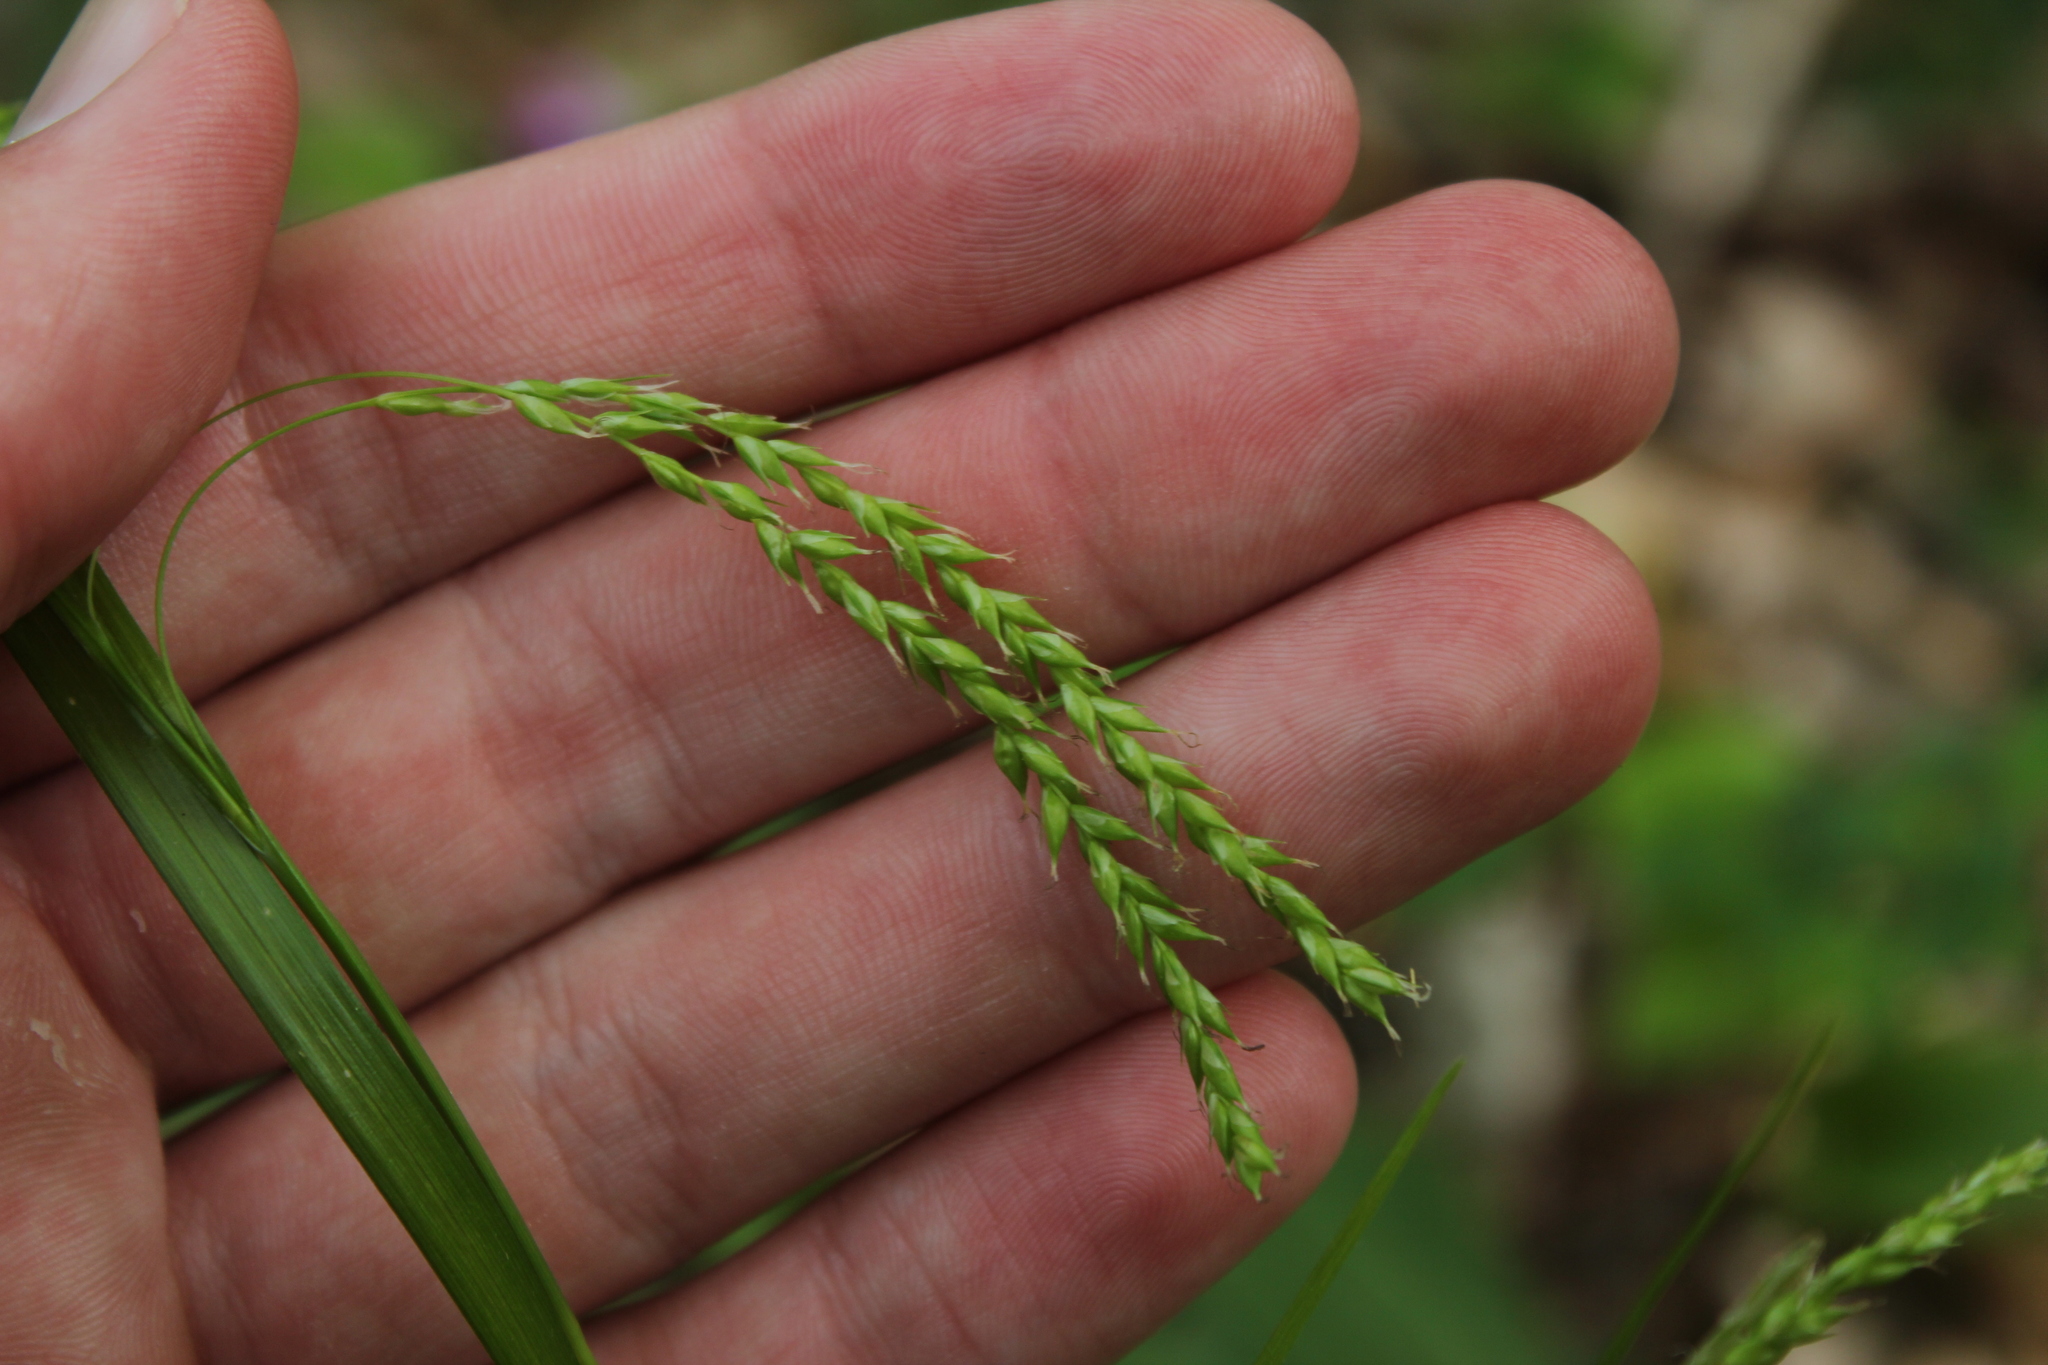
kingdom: Plantae
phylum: Tracheophyta
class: Liliopsida
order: Poales
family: Cyperaceae
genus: Carex
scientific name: Carex arctata
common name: Black sedge
